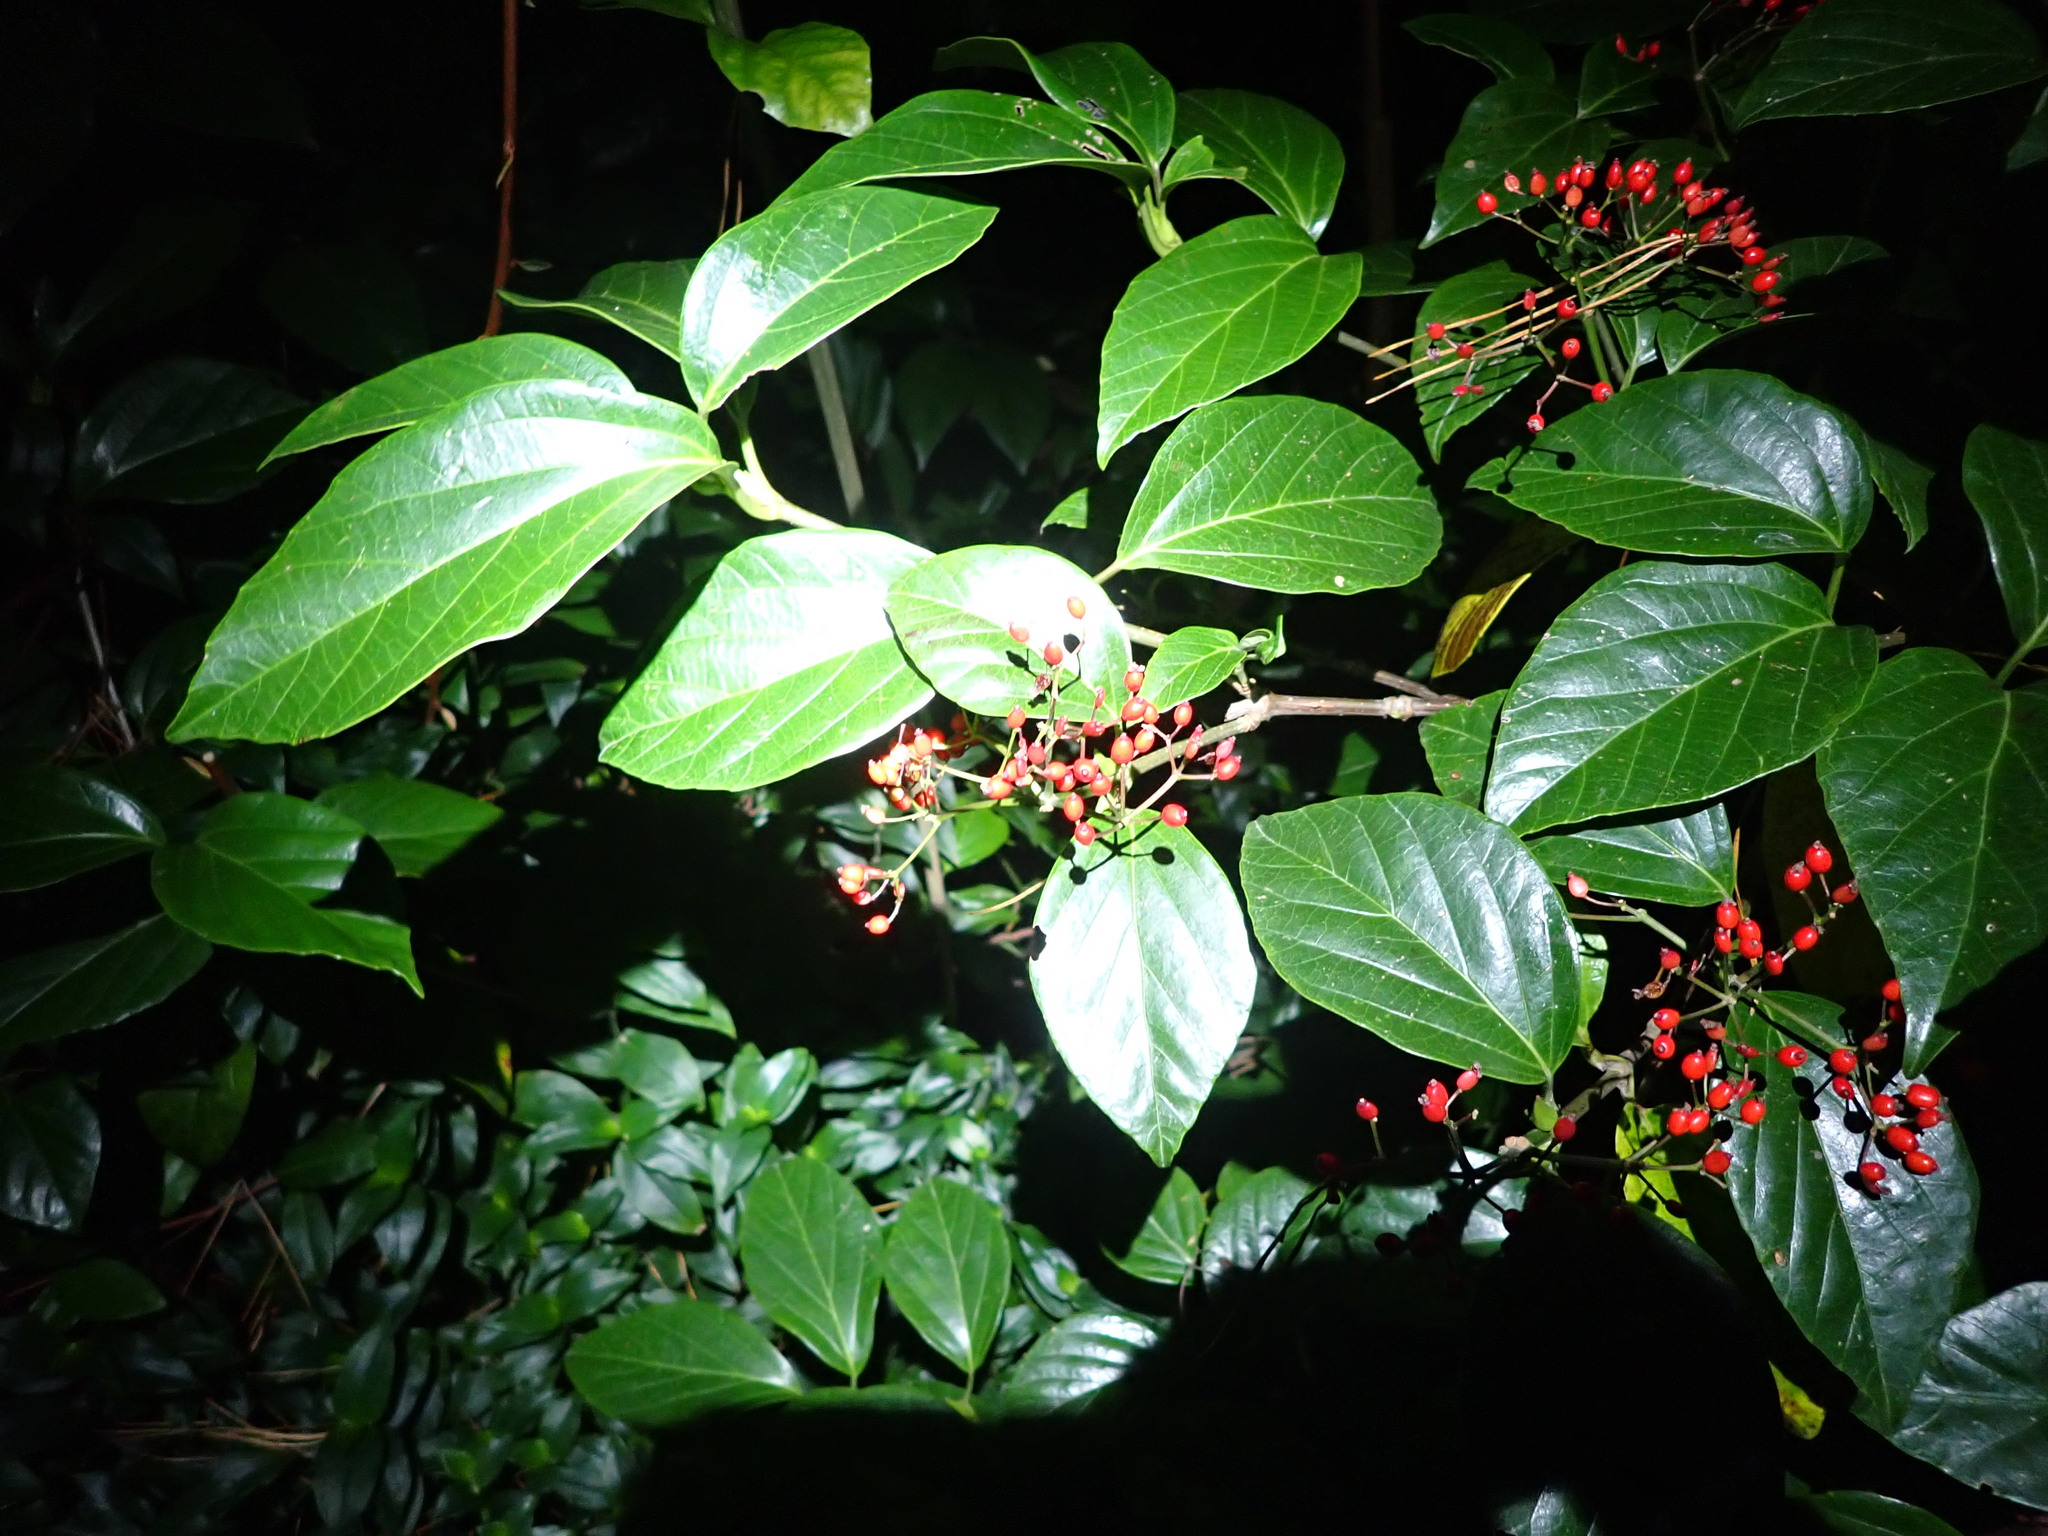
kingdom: Plantae
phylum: Tracheophyta
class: Magnoliopsida
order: Dipsacales
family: Viburnaceae
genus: Viburnum
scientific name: Viburnum japonicum
